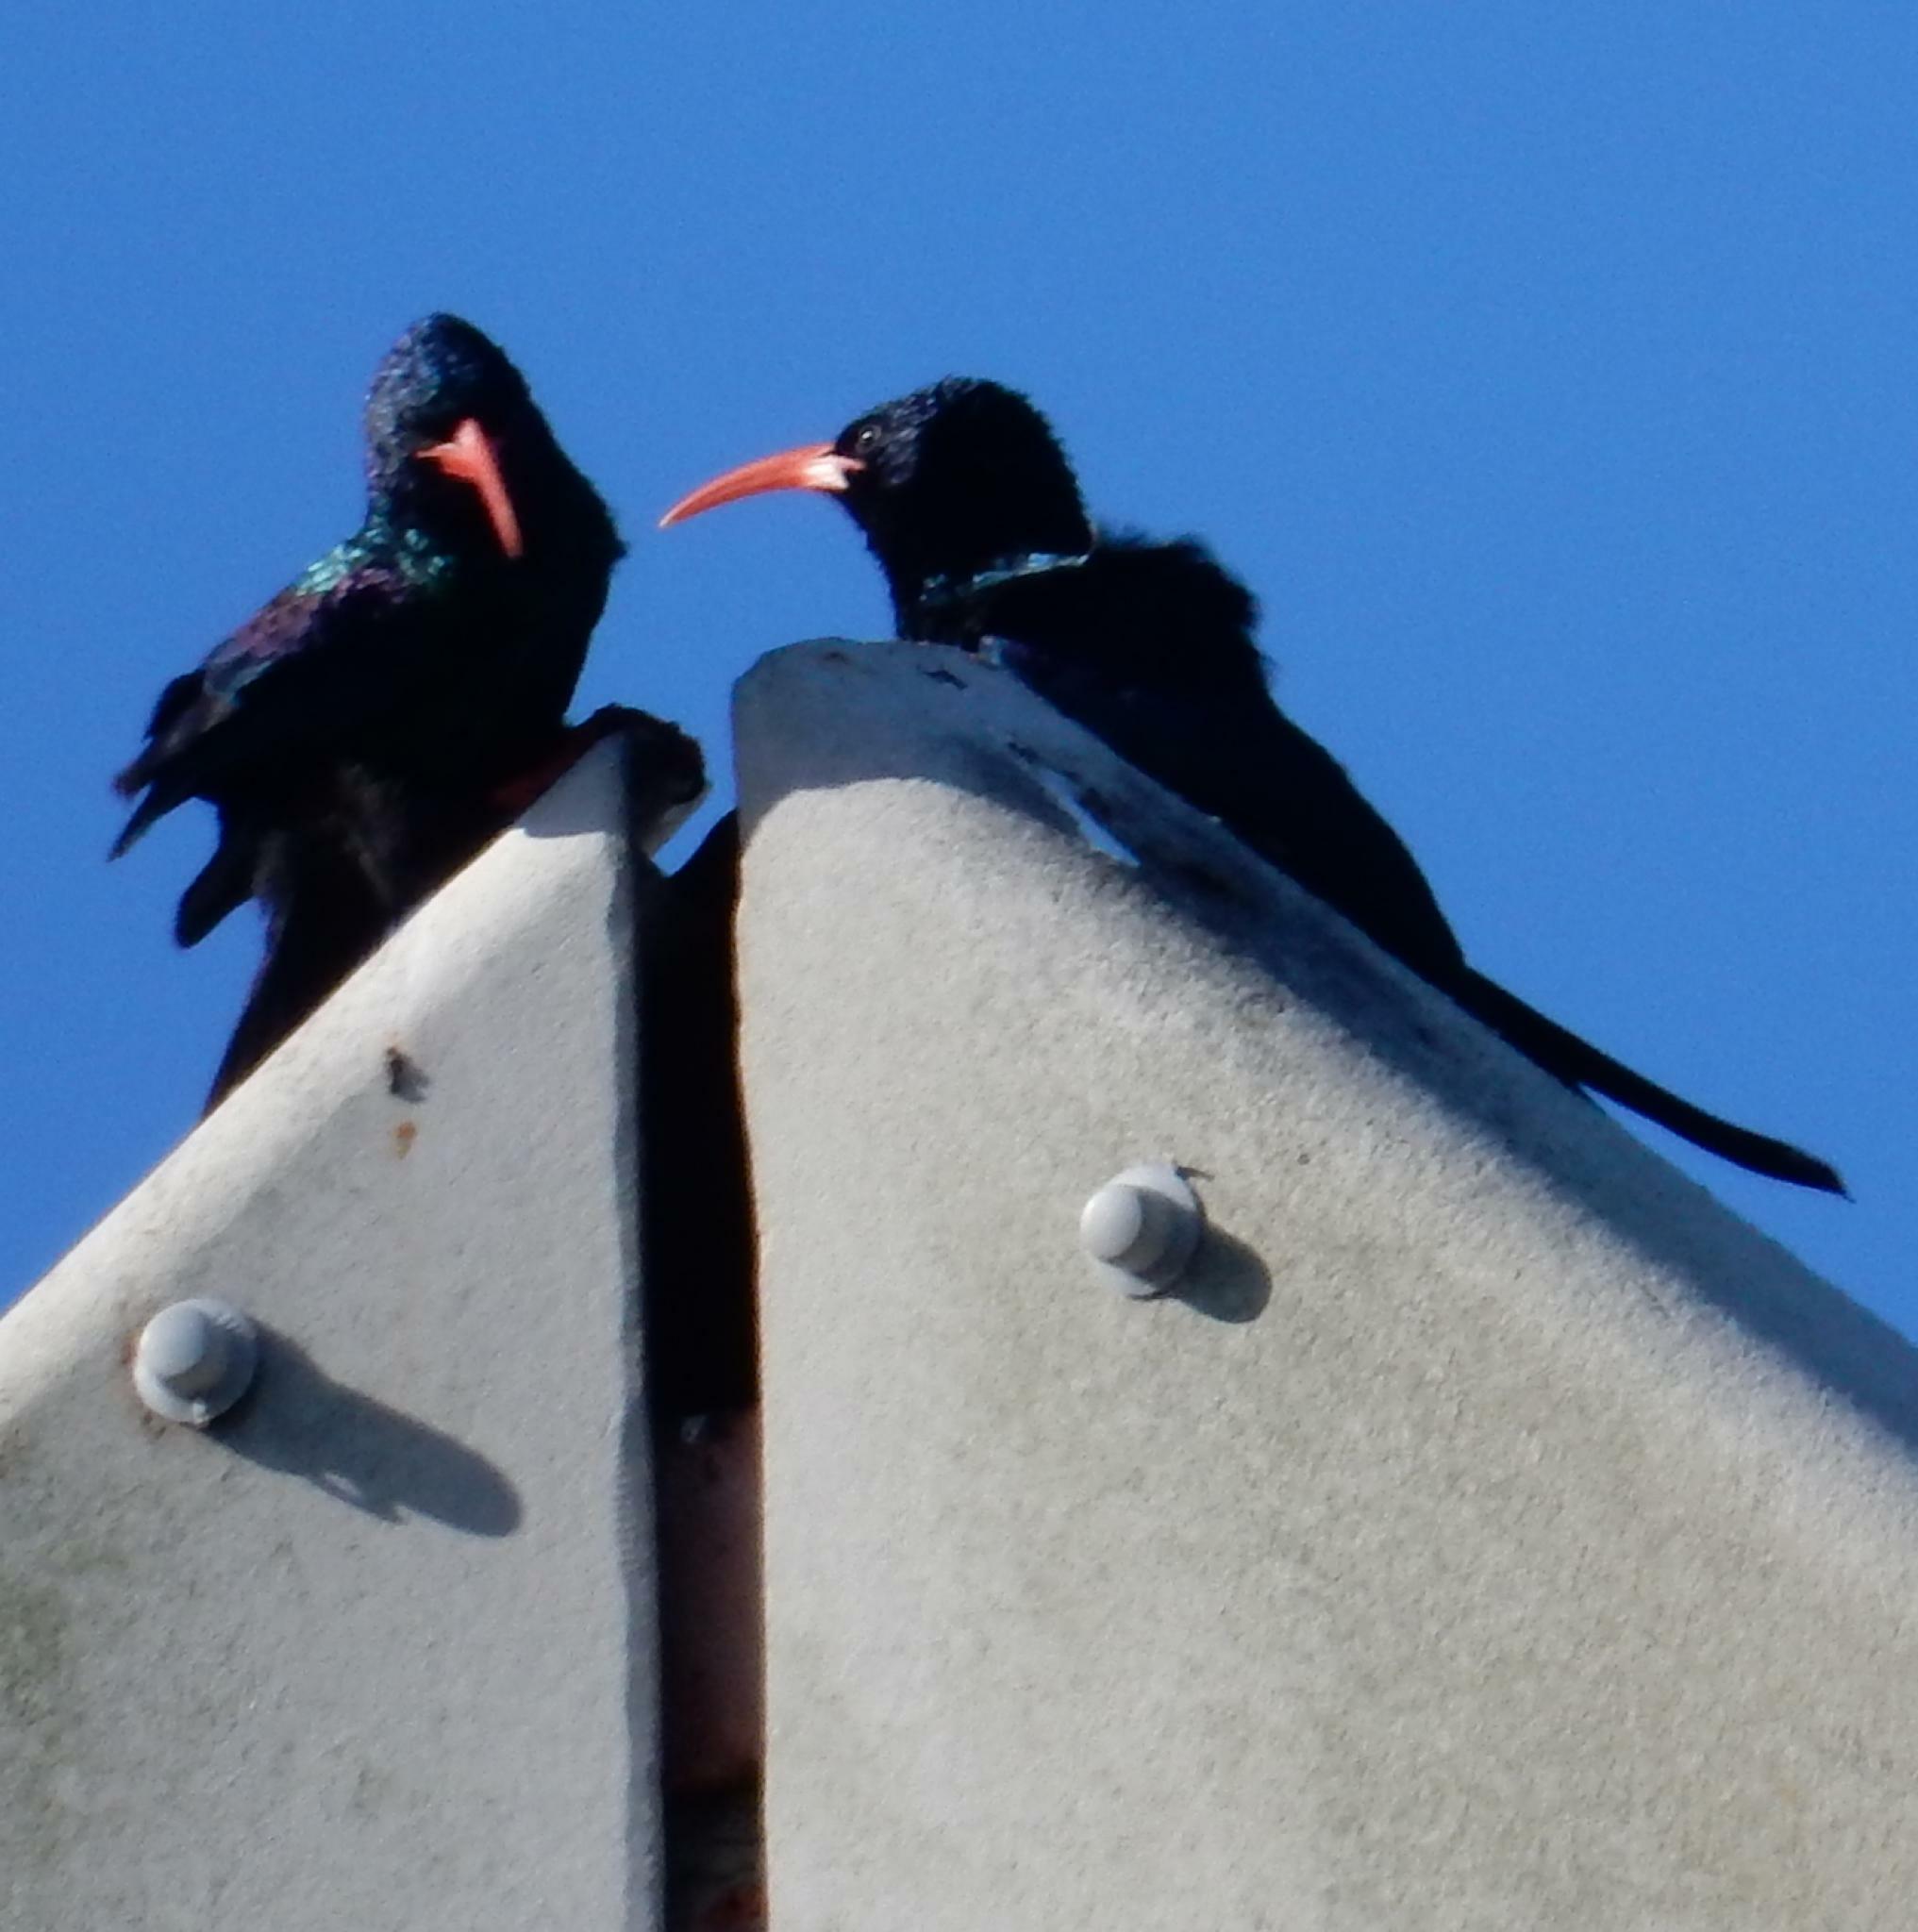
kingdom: Animalia
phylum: Chordata
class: Aves
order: Bucerotiformes
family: Phoeniculidae
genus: Phoeniculus
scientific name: Phoeniculus purpureus
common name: Green woodhoopoe
